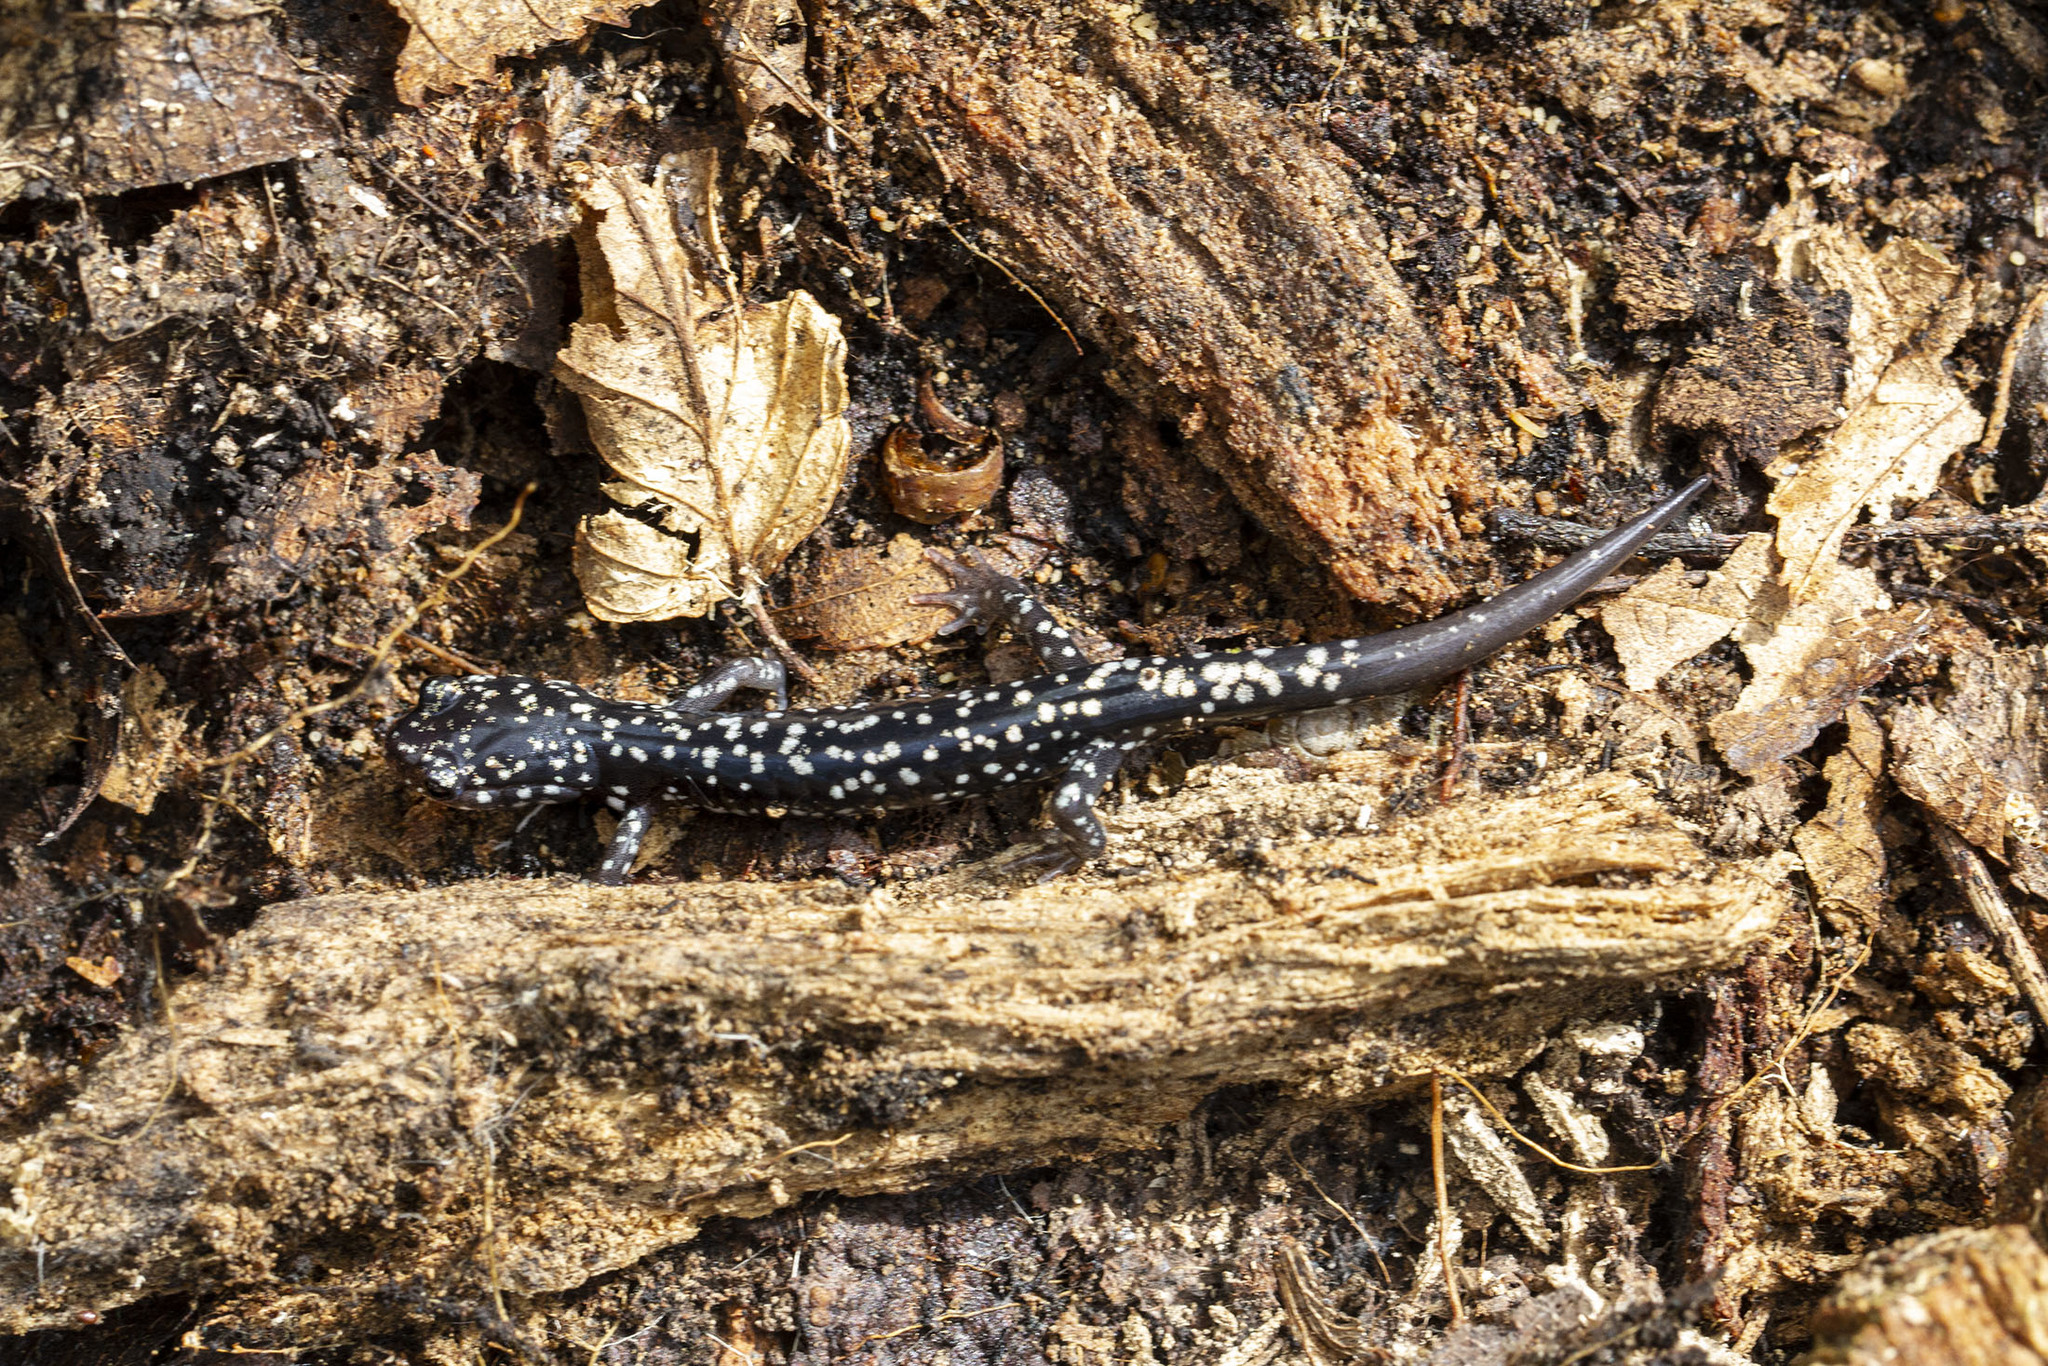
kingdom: Animalia
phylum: Chordata
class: Amphibia
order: Caudata
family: Plethodontidae
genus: Plethodon
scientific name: Plethodon glutinosus
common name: Northern slimy salamander
